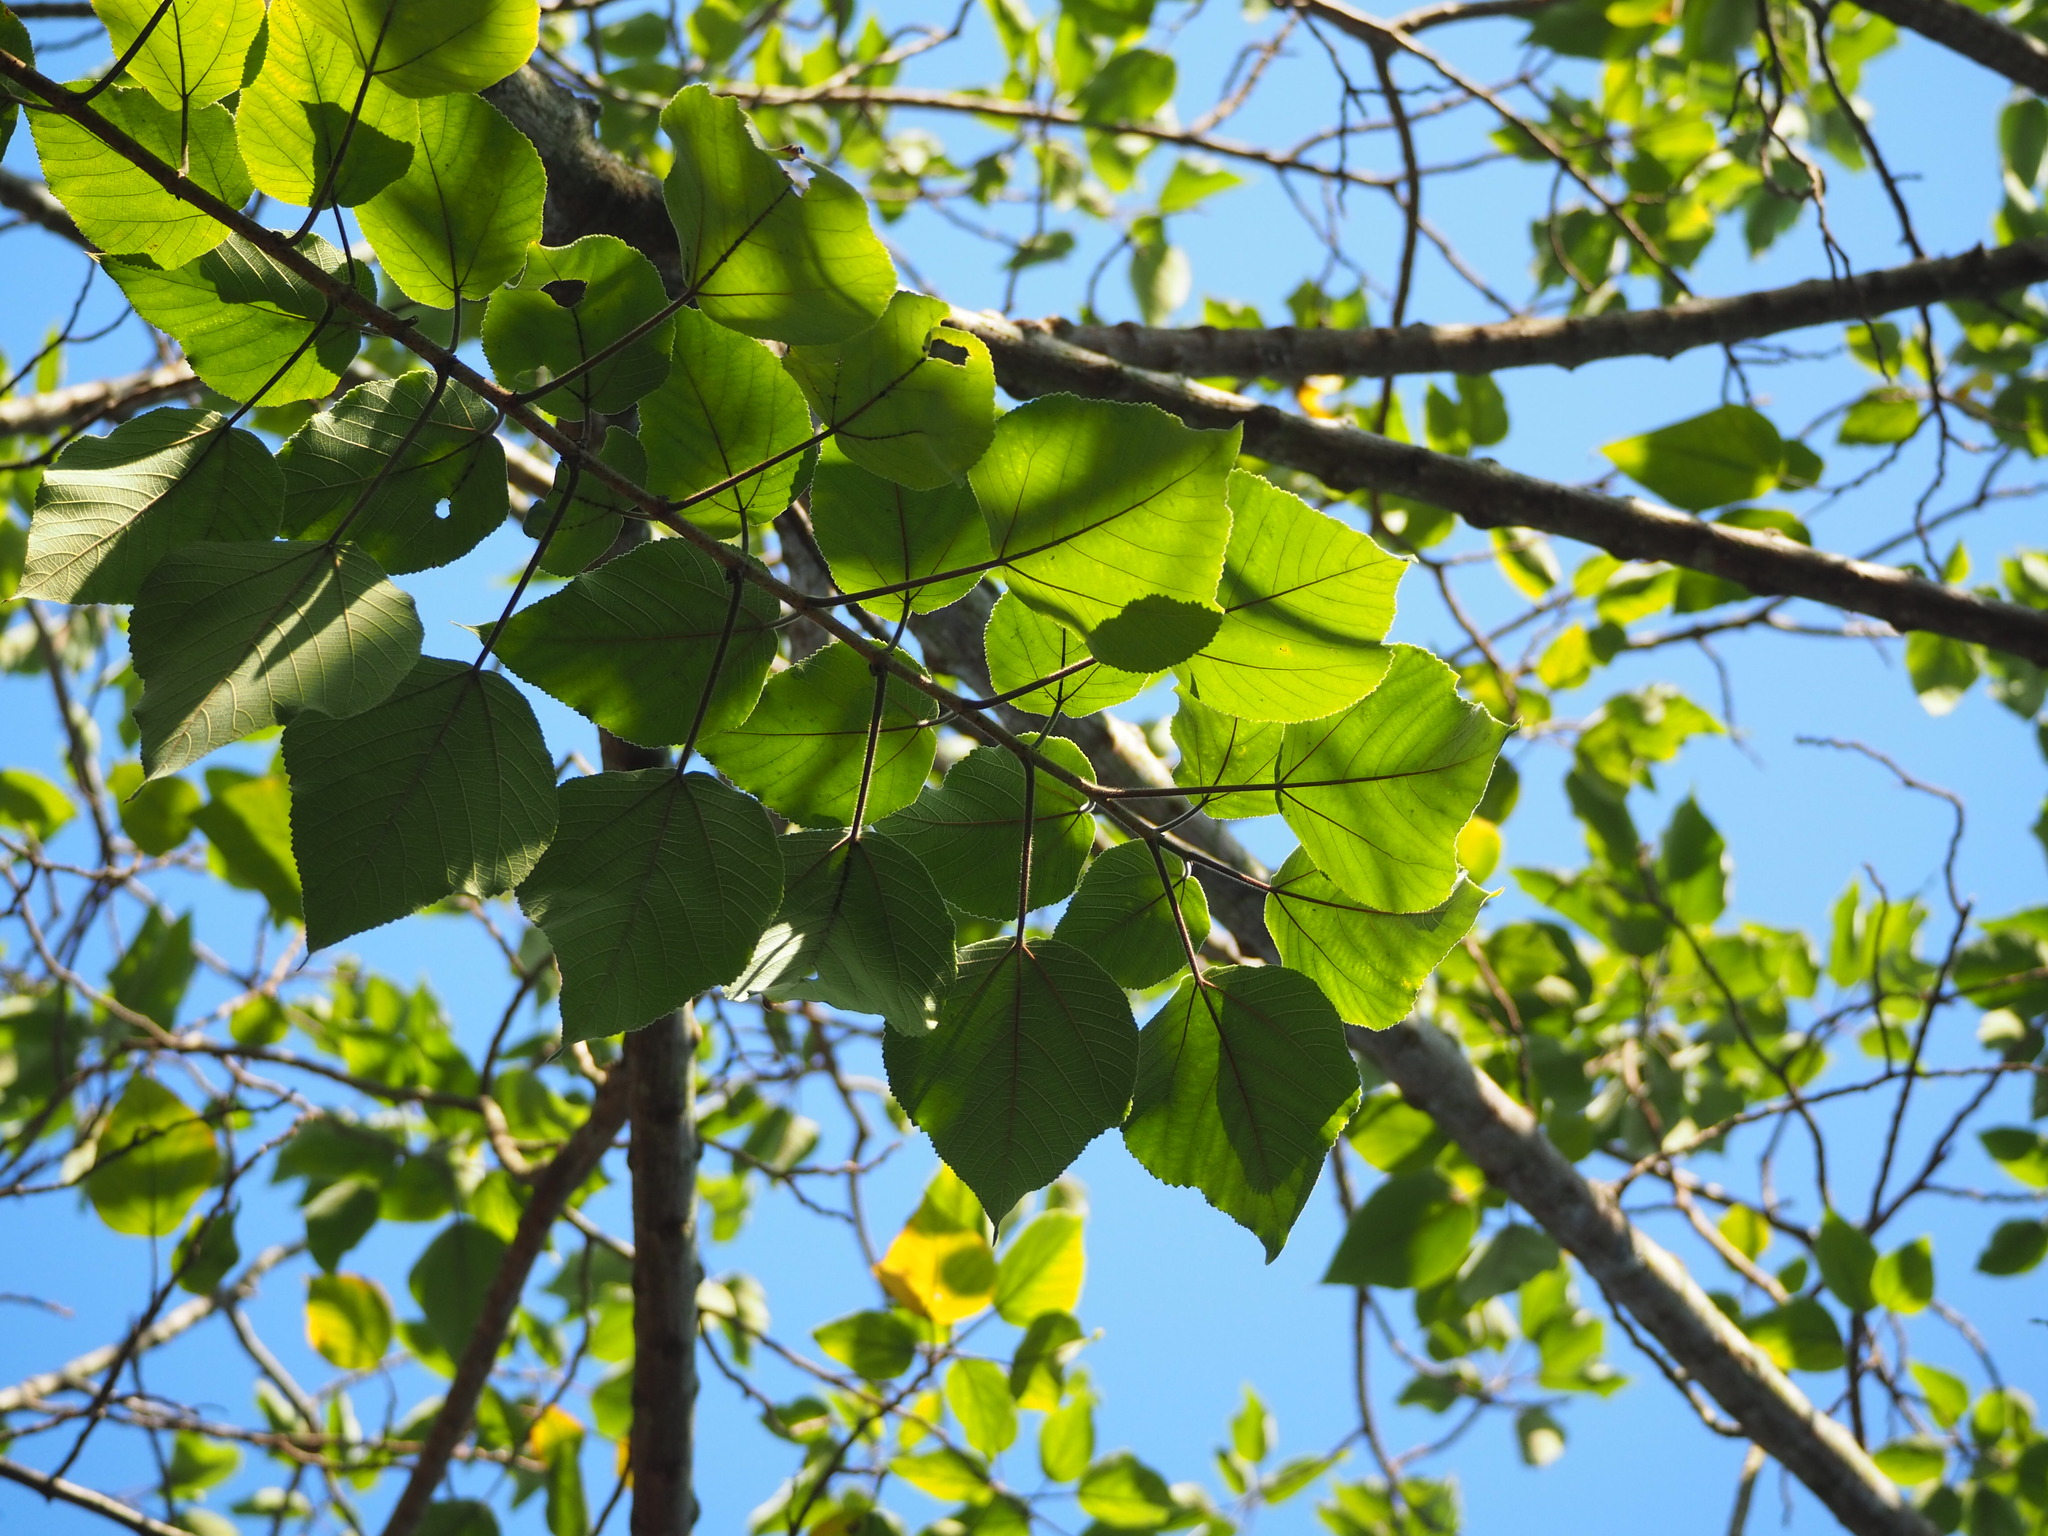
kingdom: Plantae
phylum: Tracheophyta
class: Magnoliopsida
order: Rosales
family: Moraceae
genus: Broussonetia
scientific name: Broussonetia papyrifera
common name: Paper mulberry
